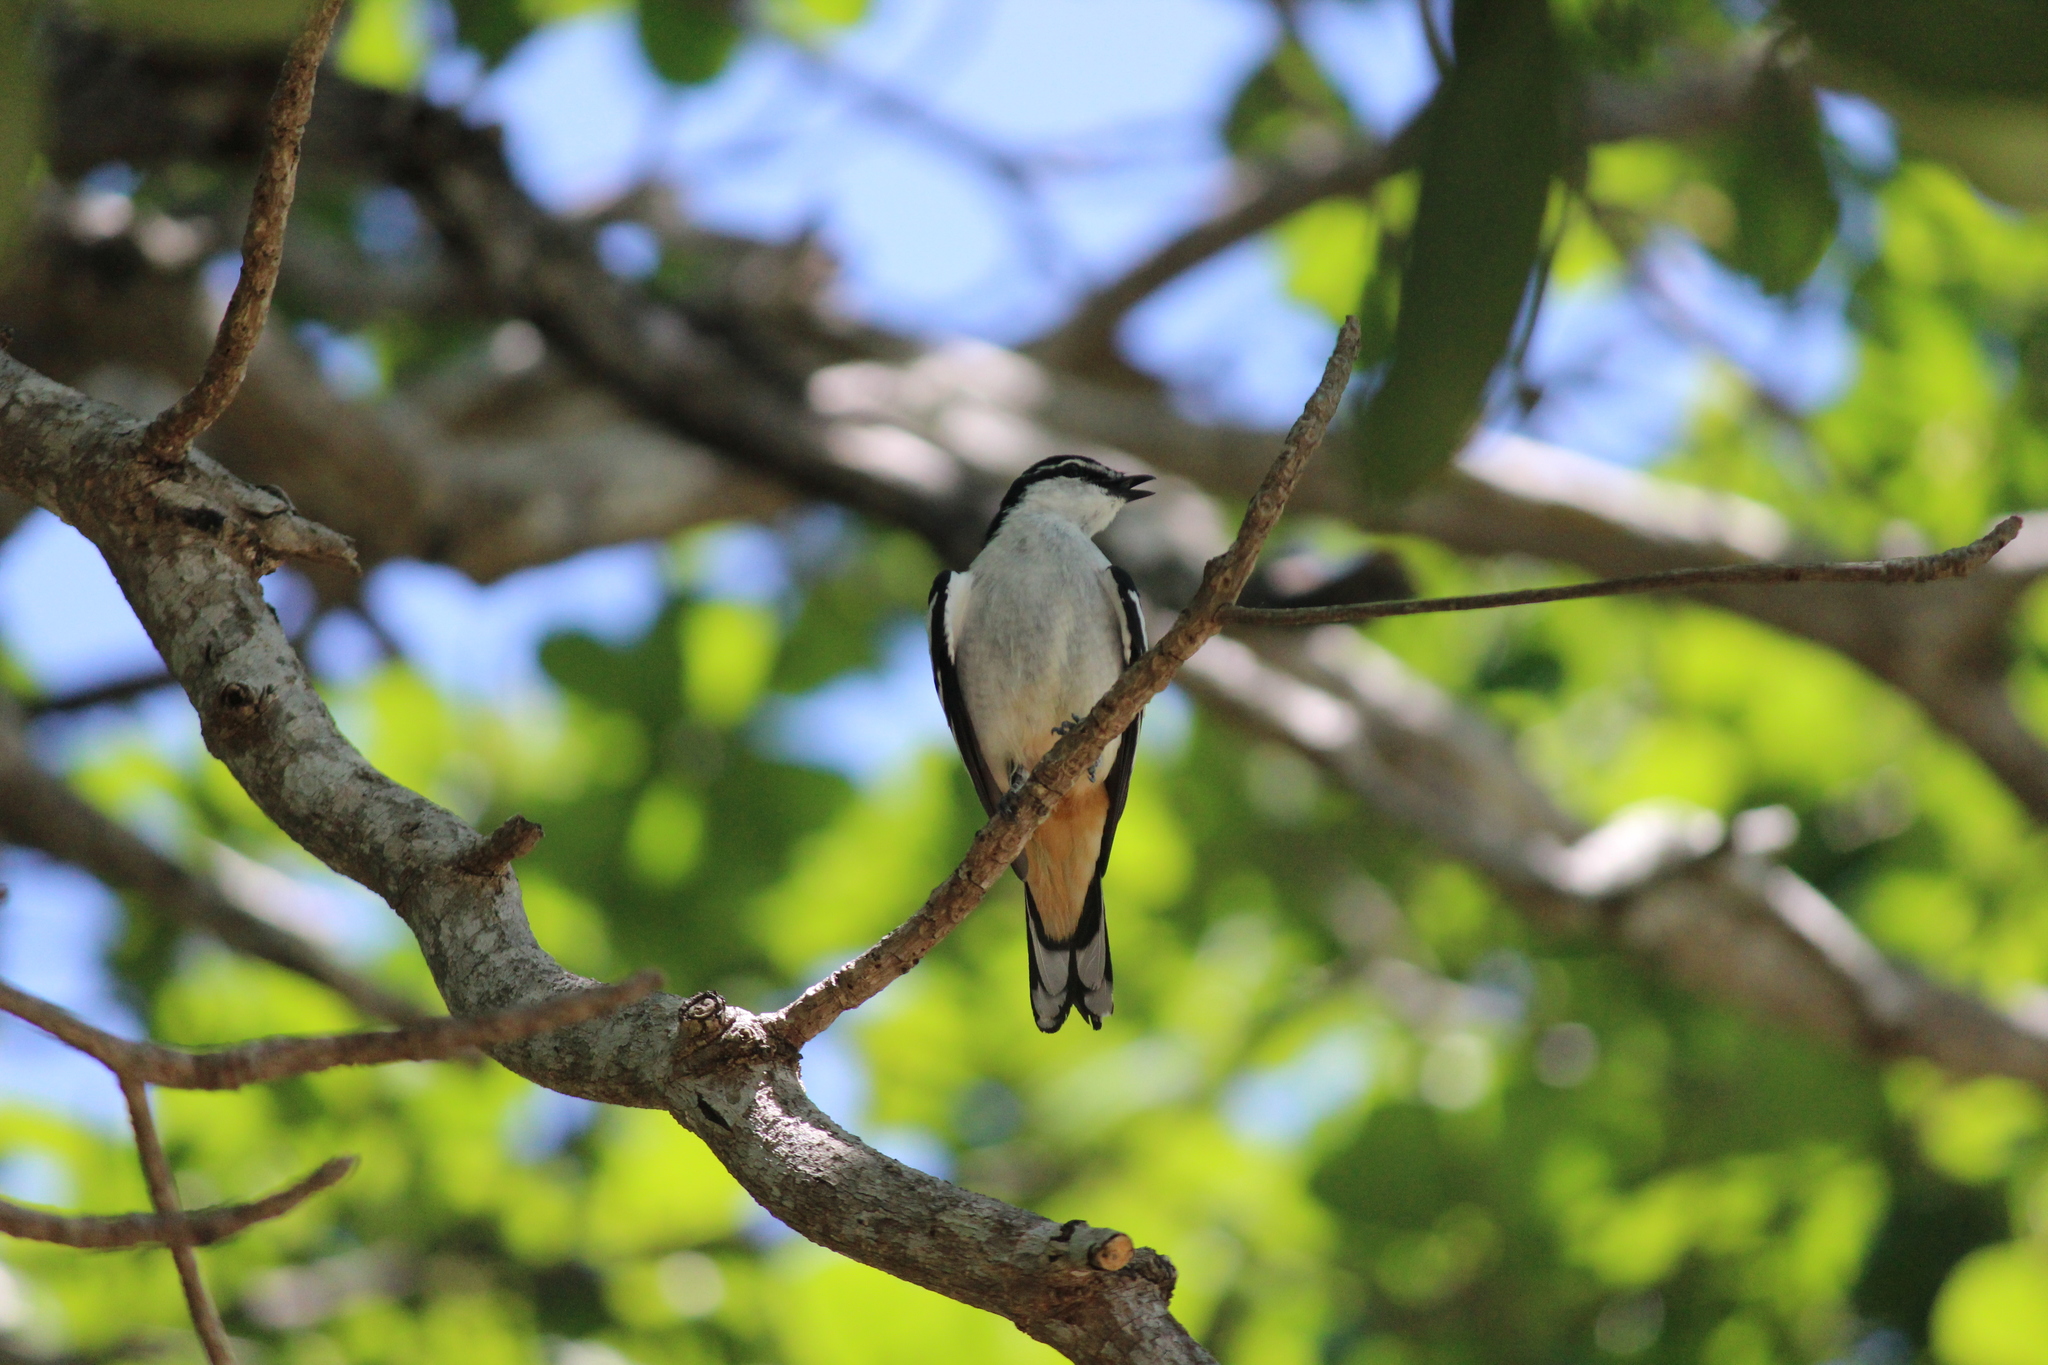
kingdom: Animalia
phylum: Chordata
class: Aves
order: Passeriformes
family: Campephagidae
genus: Lalage
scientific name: Lalage leucomela
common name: Varied triller
